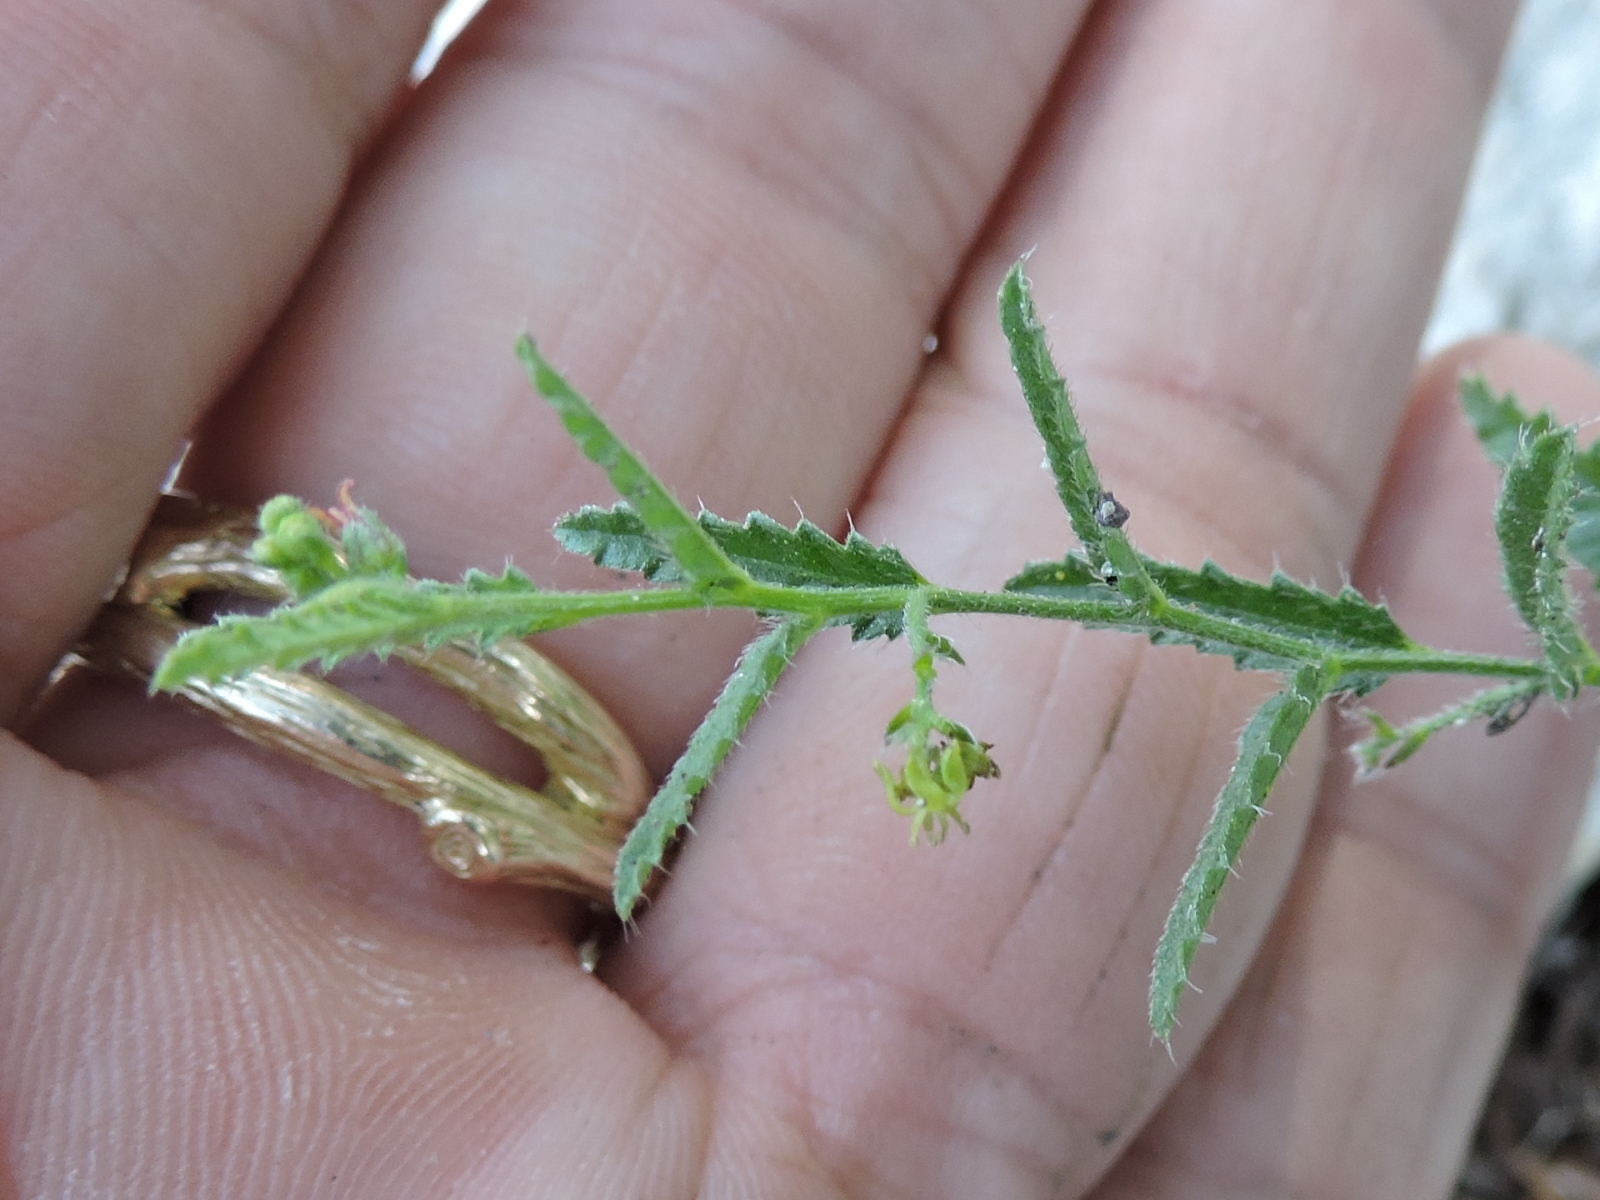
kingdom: Plantae
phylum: Tracheophyta
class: Magnoliopsida
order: Malpighiales
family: Euphorbiaceae
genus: Tragia
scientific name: Tragia ramosa
